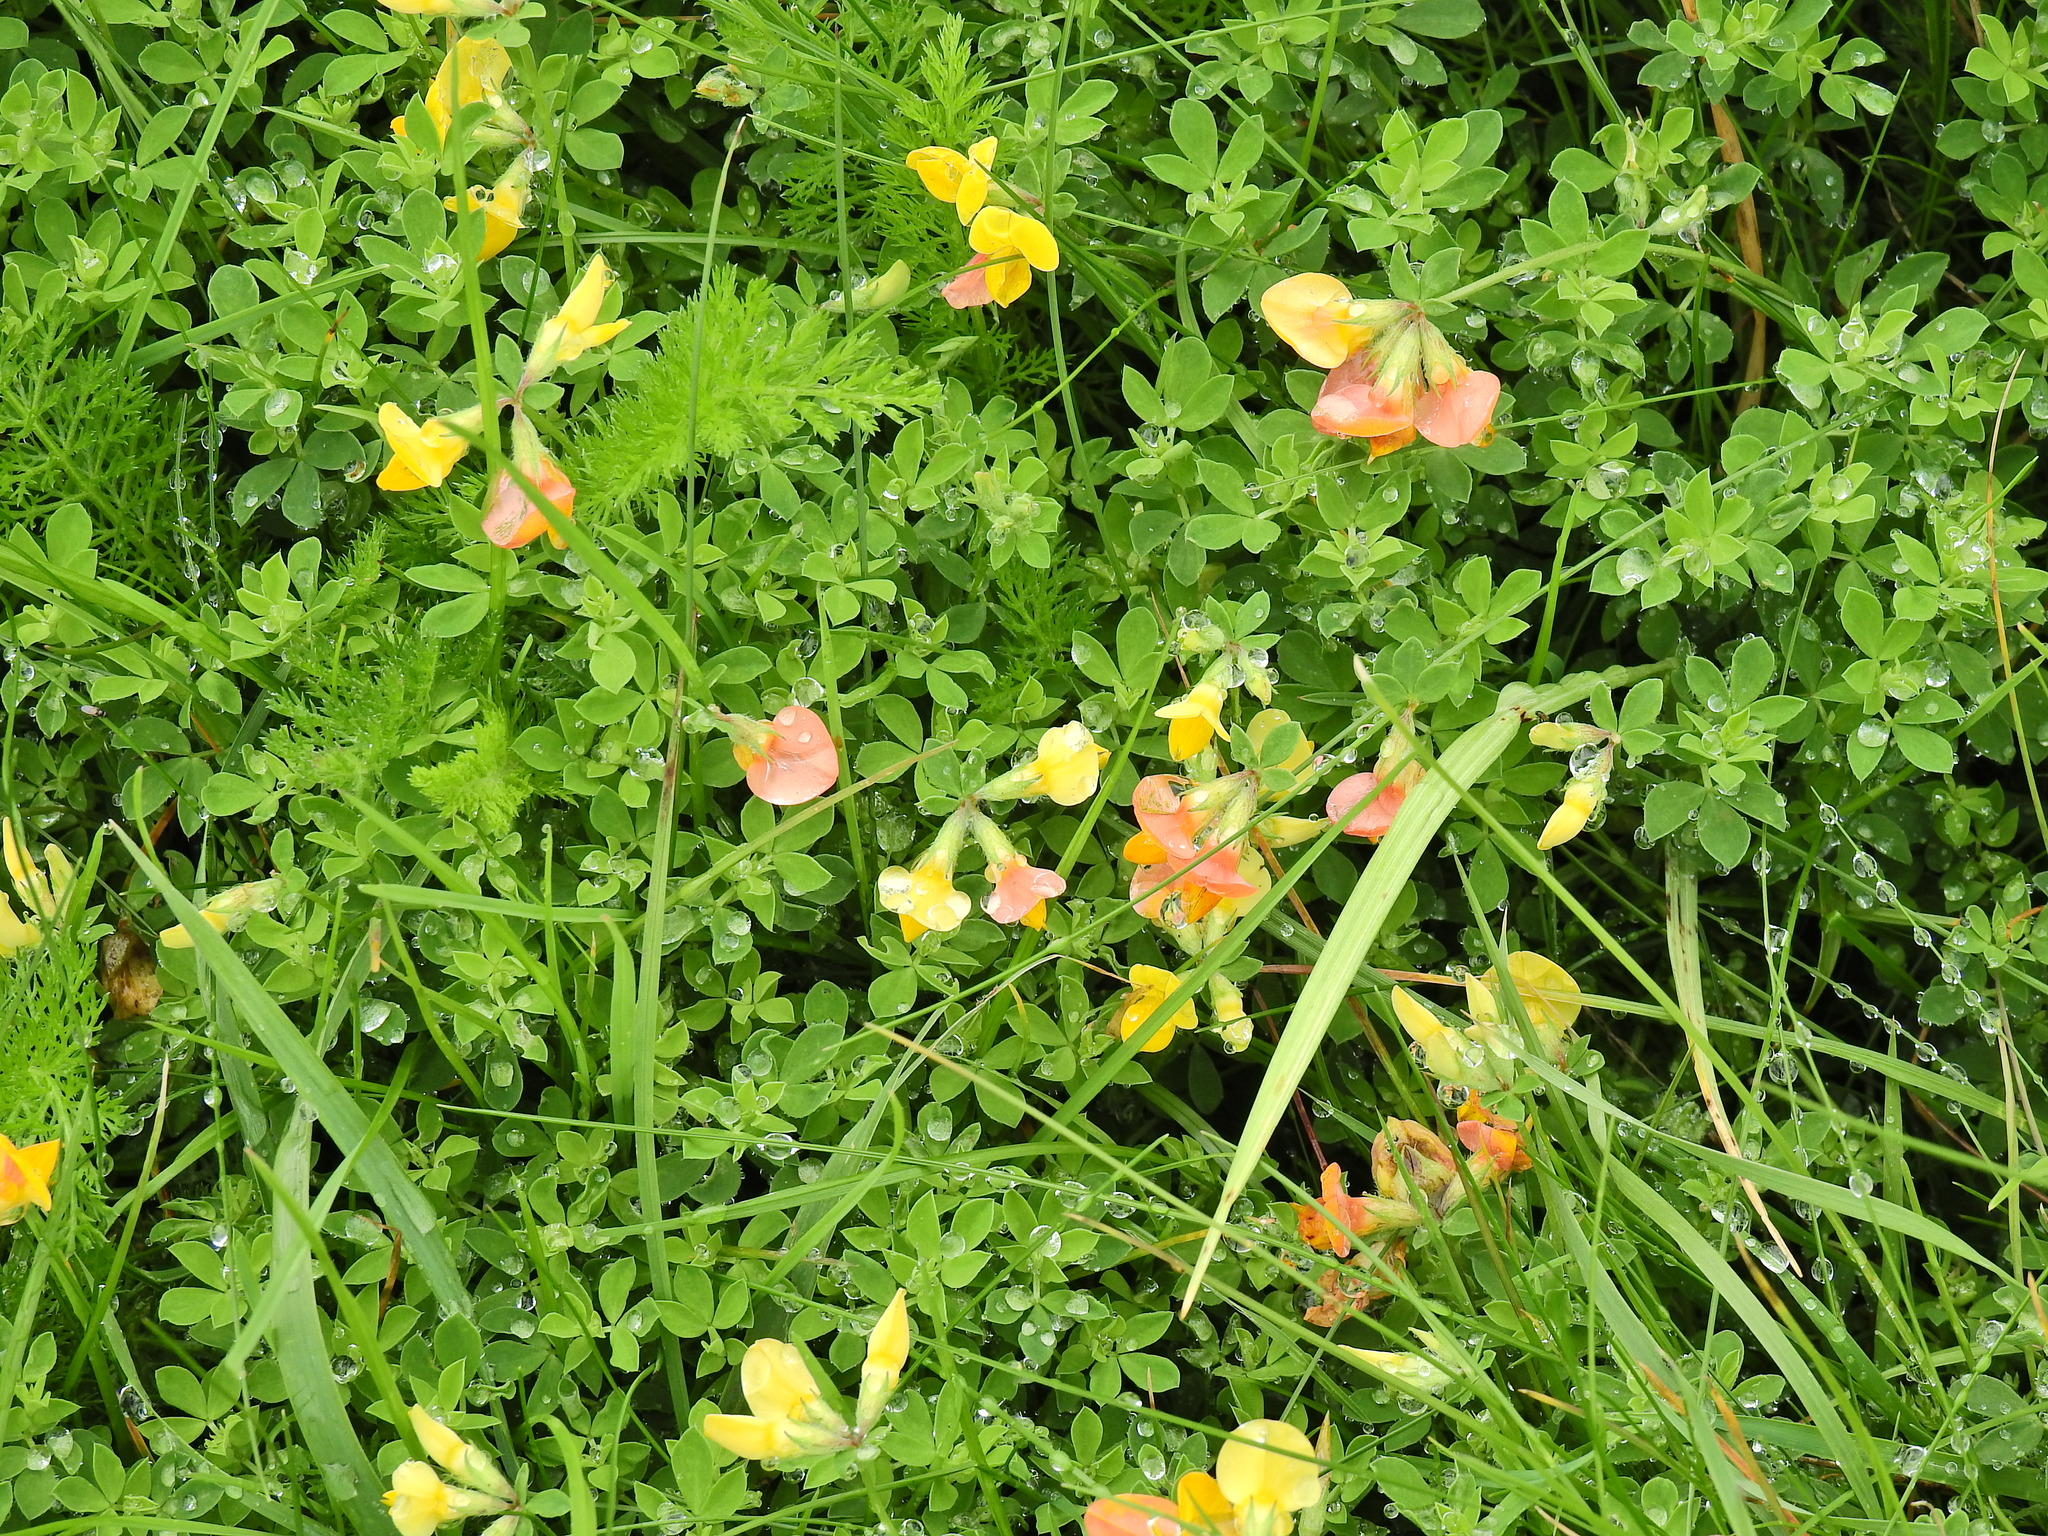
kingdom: Plantae
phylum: Tracheophyta
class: Magnoliopsida
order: Fabales
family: Fabaceae
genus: Lotus
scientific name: Lotus corniculatus
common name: Common bird's-foot-trefoil
